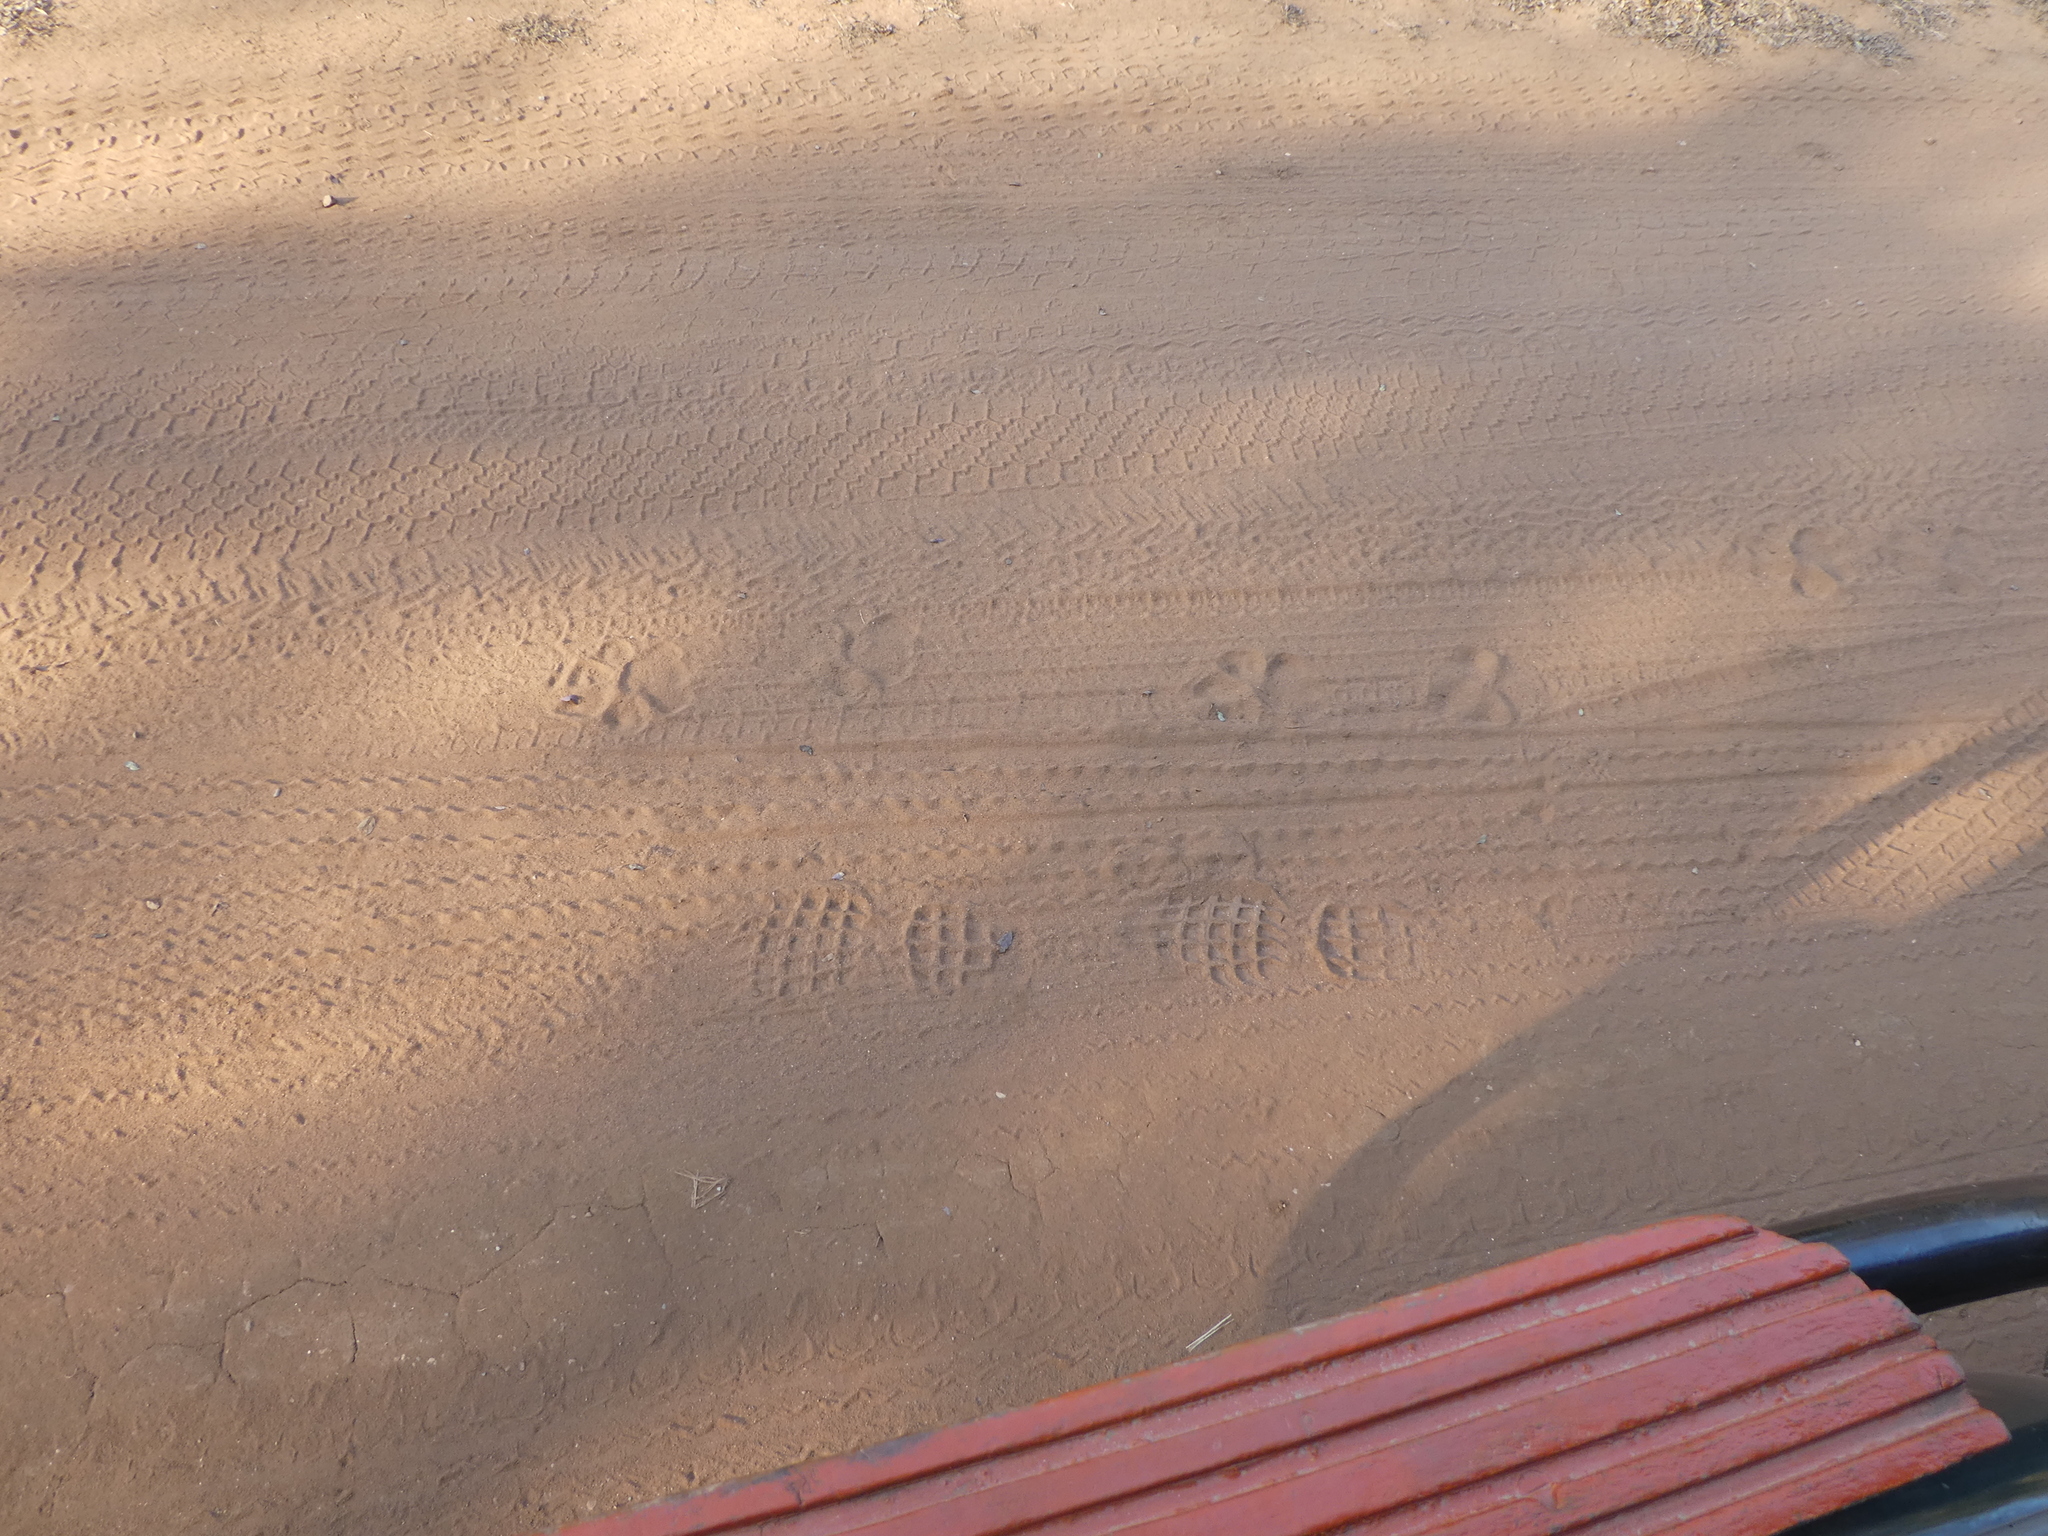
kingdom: Animalia
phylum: Chordata
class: Mammalia
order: Carnivora
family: Felidae
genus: Panthera
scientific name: Panthera tigris
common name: Tiger
